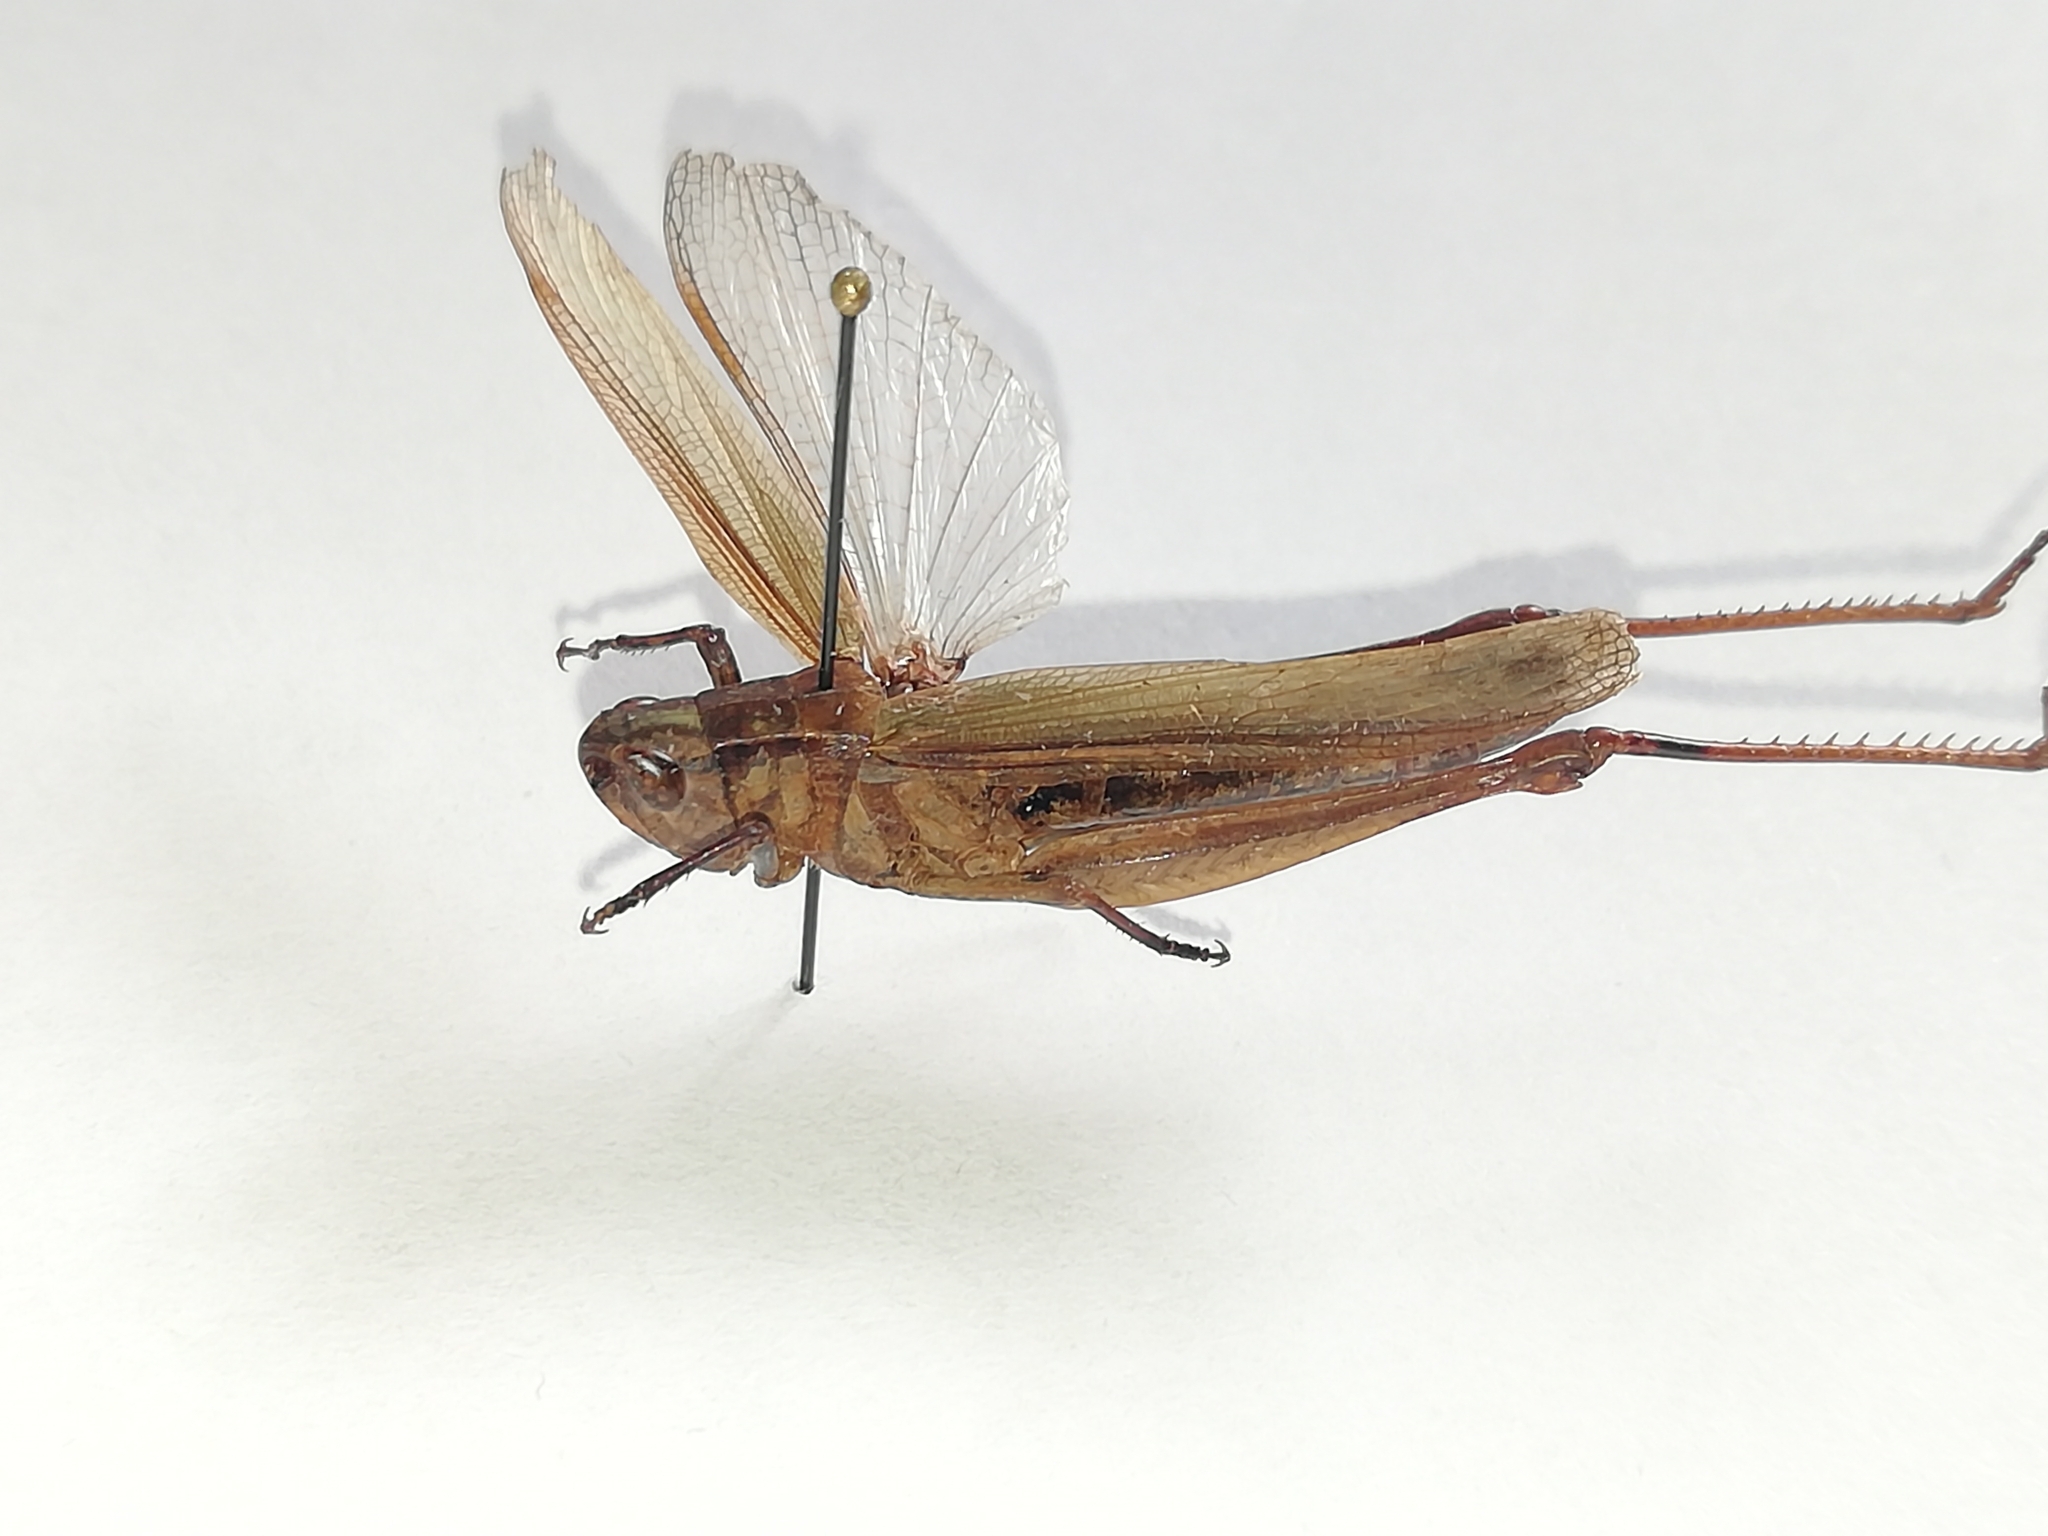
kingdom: Animalia
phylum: Arthropoda
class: Insecta
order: Orthoptera
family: Acrididae
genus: Chorthippus
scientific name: Chorthippus dichrous
